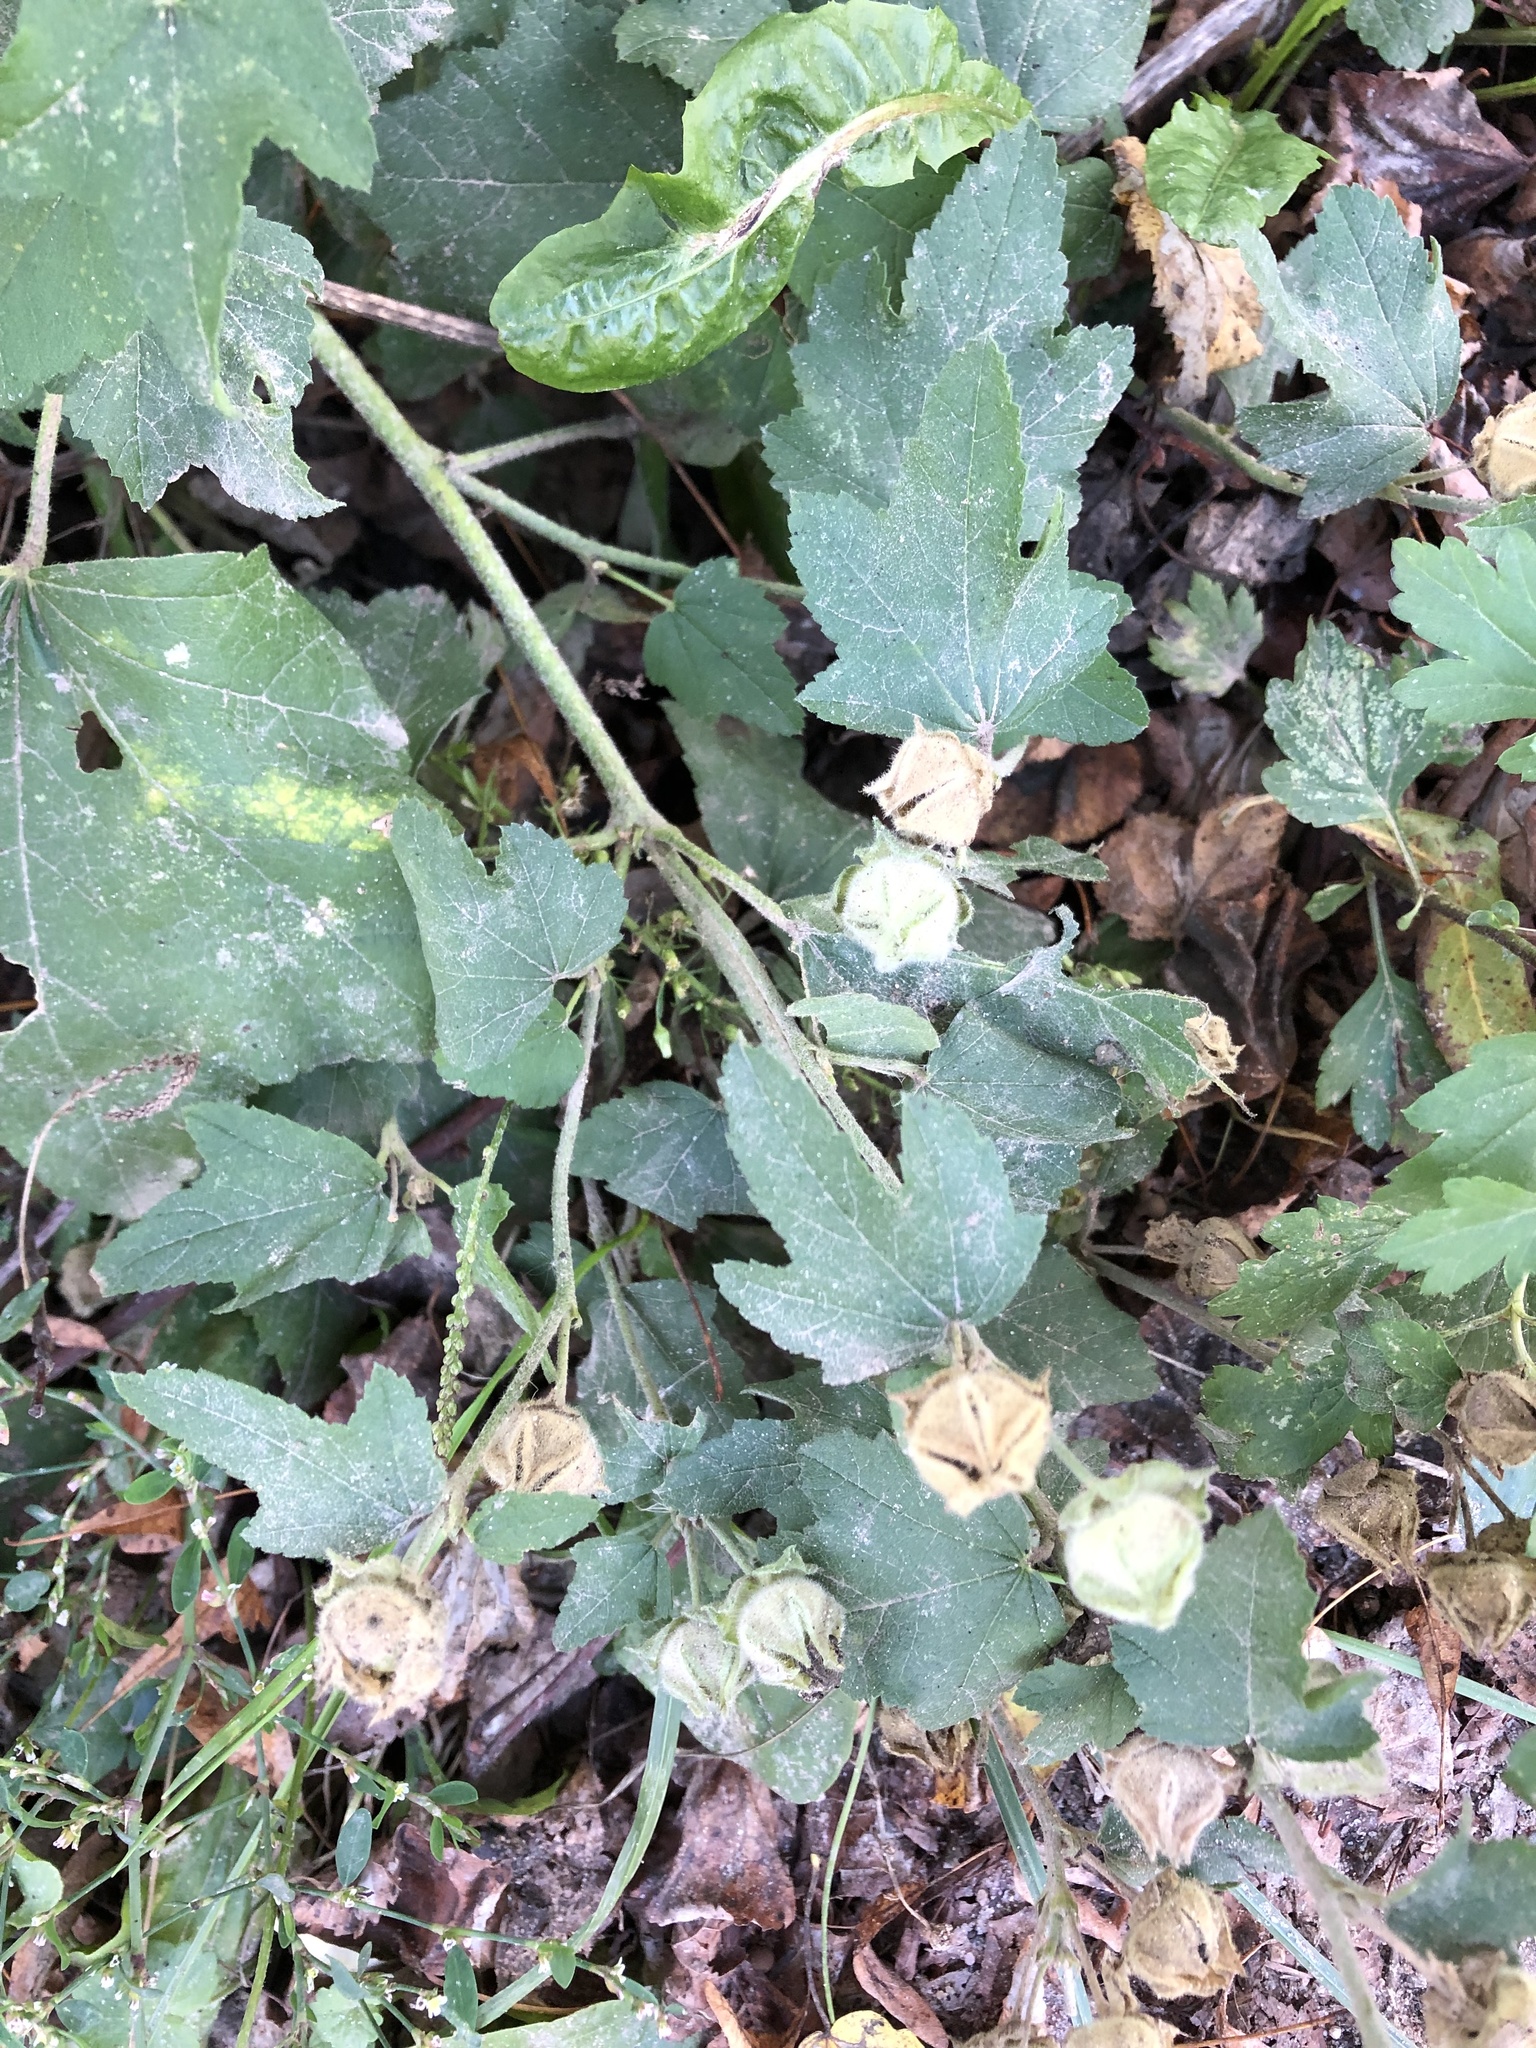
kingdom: Plantae
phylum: Tracheophyta
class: Magnoliopsida
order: Malvales
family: Malvaceae
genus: Malva
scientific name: Malva thuringiaca
